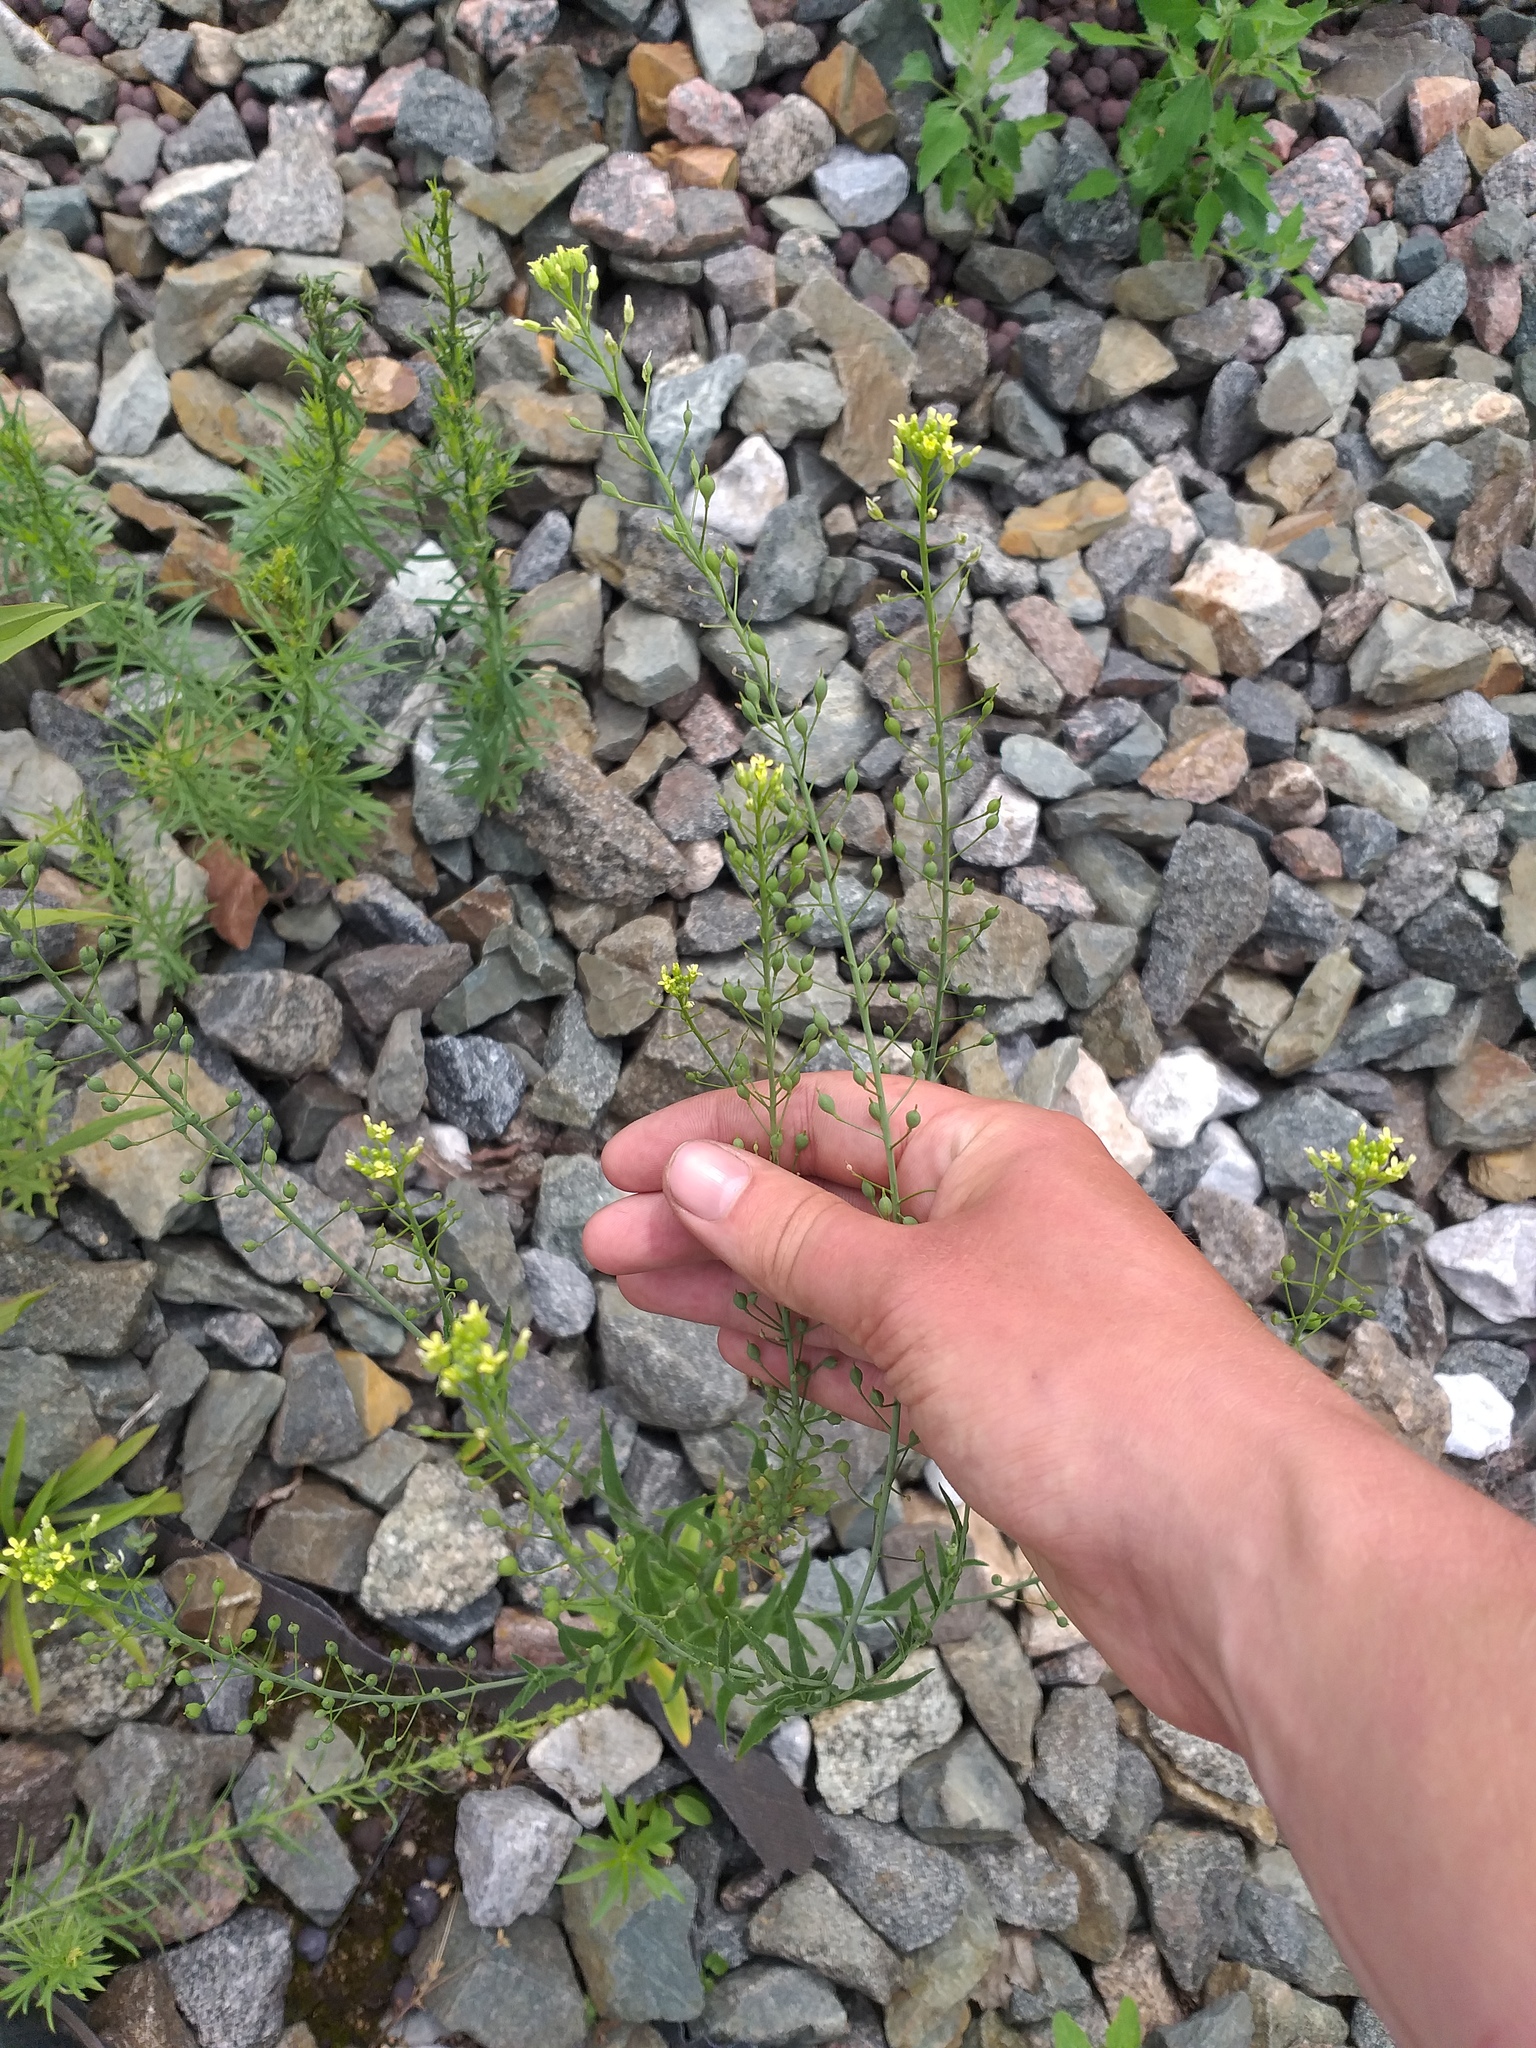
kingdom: Plantae
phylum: Tracheophyta
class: Magnoliopsida
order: Brassicales
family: Brassicaceae
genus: Camelina
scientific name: Camelina microcarpa
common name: Lesser gold-of-pleasure
